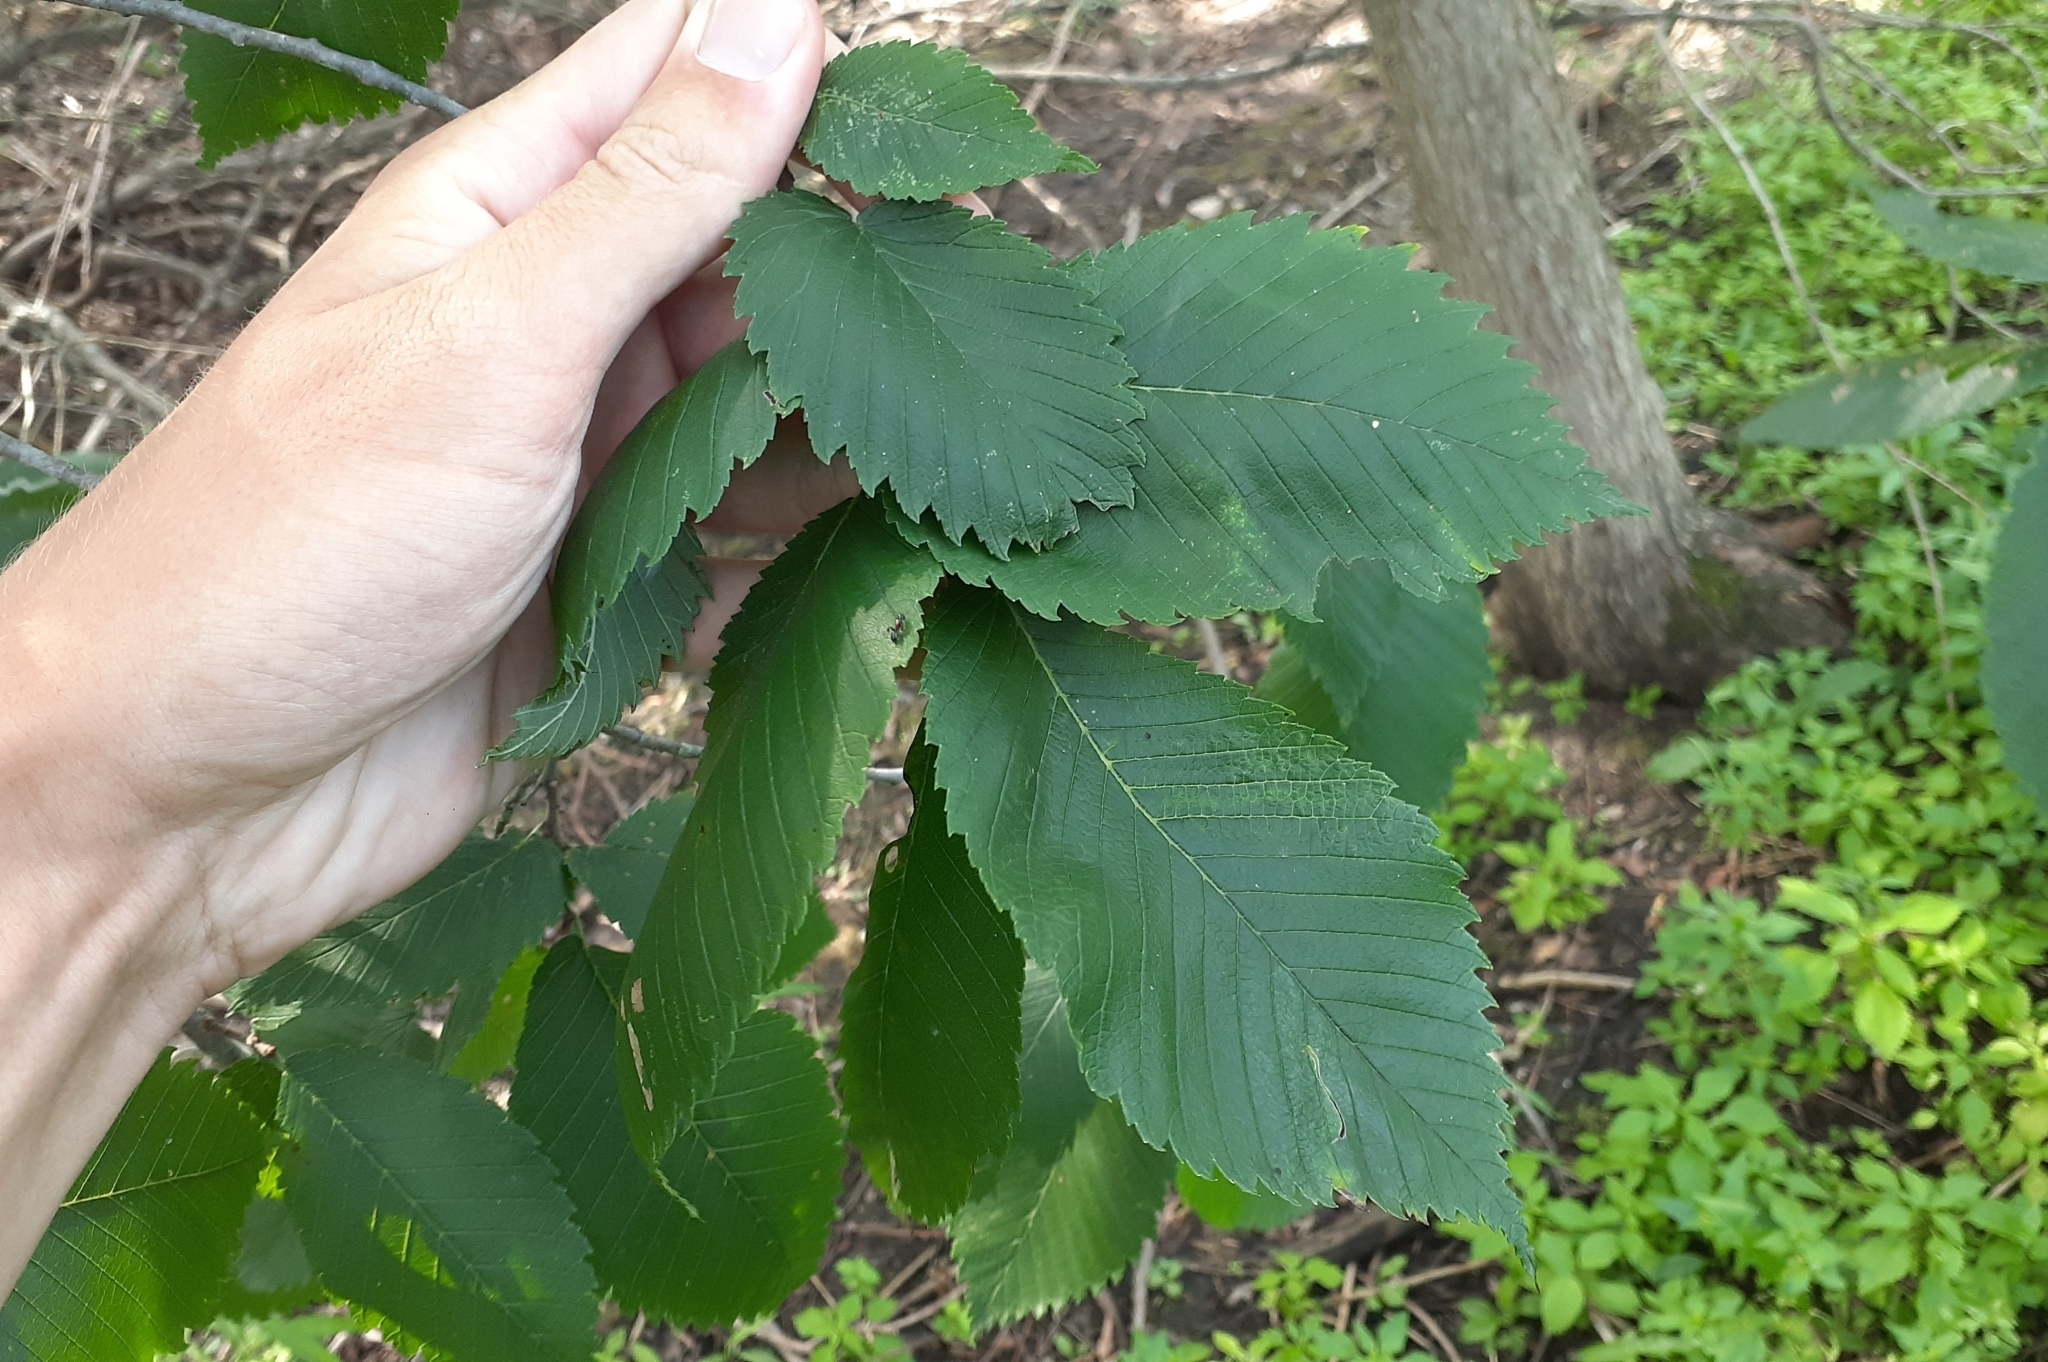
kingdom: Plantae
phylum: Tracheophyta
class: Magnoliopsida
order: Rosales
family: Ulmaceae
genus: Ulmus
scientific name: Ulmus americana
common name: American elm
